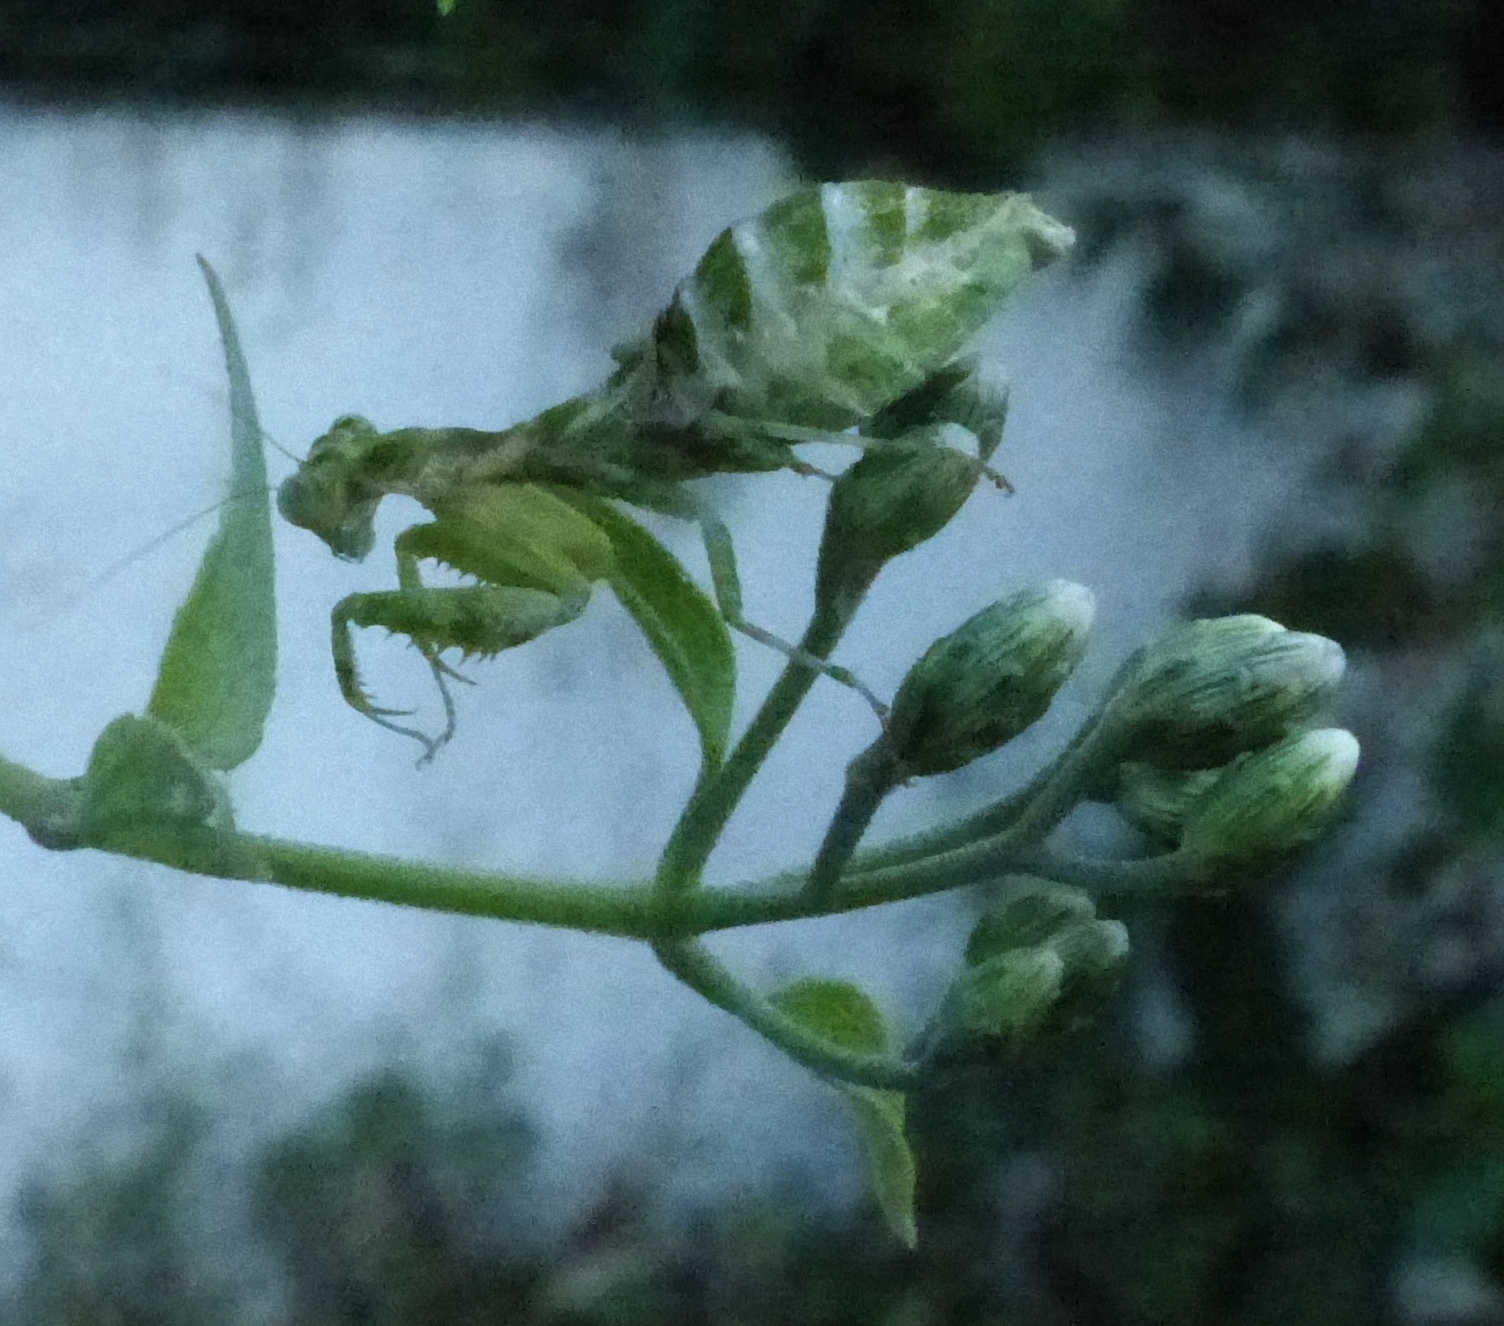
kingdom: Animalia
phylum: Arthropoda
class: Insecta
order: Mantodea
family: Acanthopidae
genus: Acontista
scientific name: Acontista
